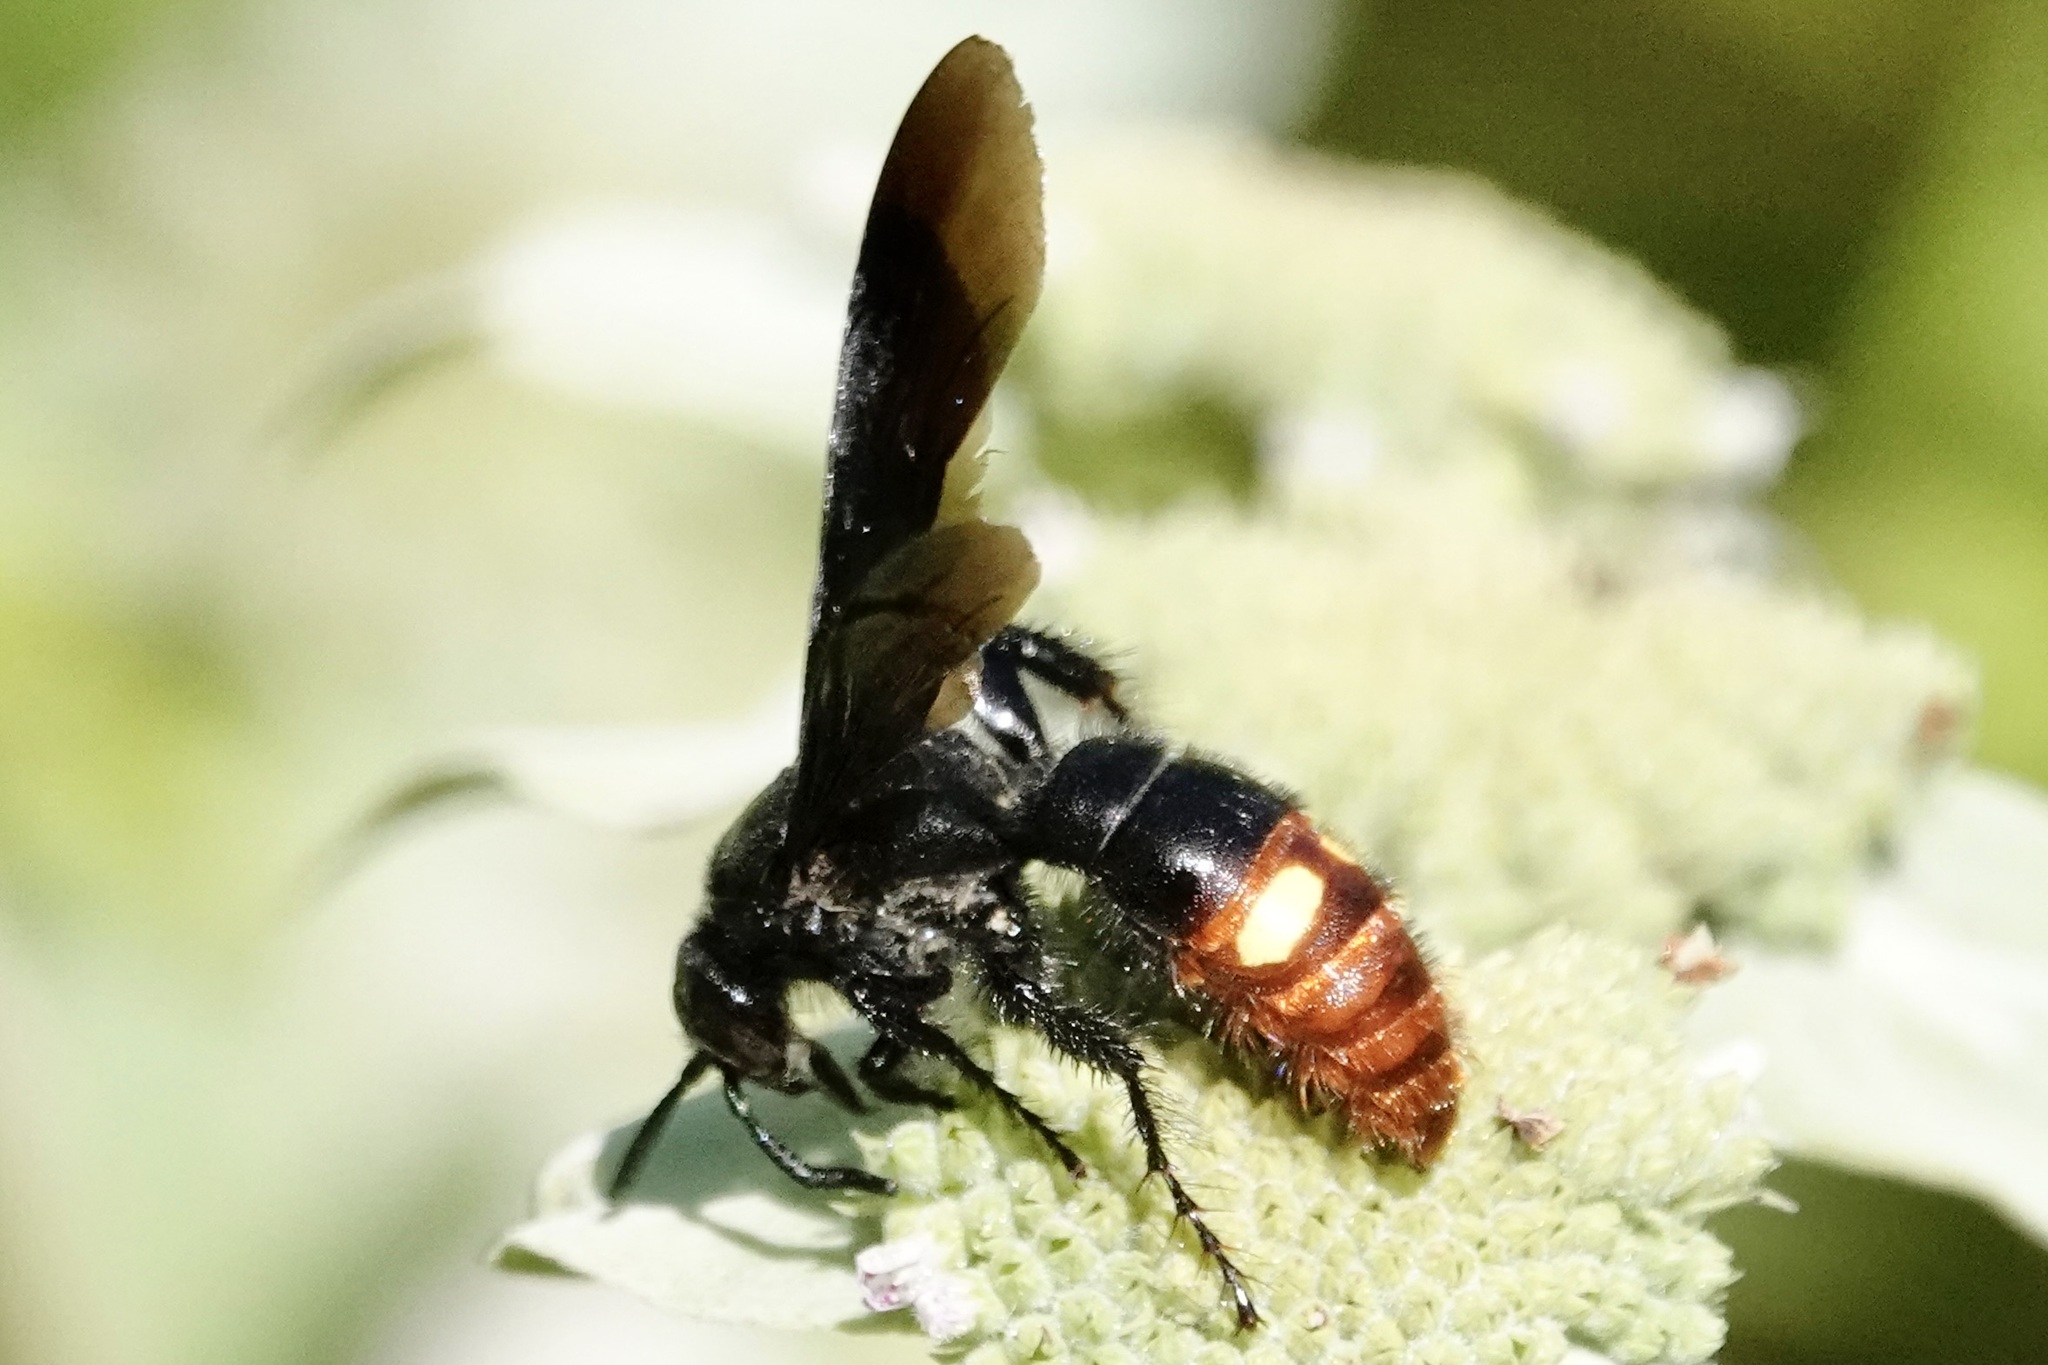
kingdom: Animalia
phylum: Arthropoda
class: Insecta
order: Hymenoptera
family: Scoliidae
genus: Scolia
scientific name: Scolia dubia
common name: Blue-winged scoliid wasp
